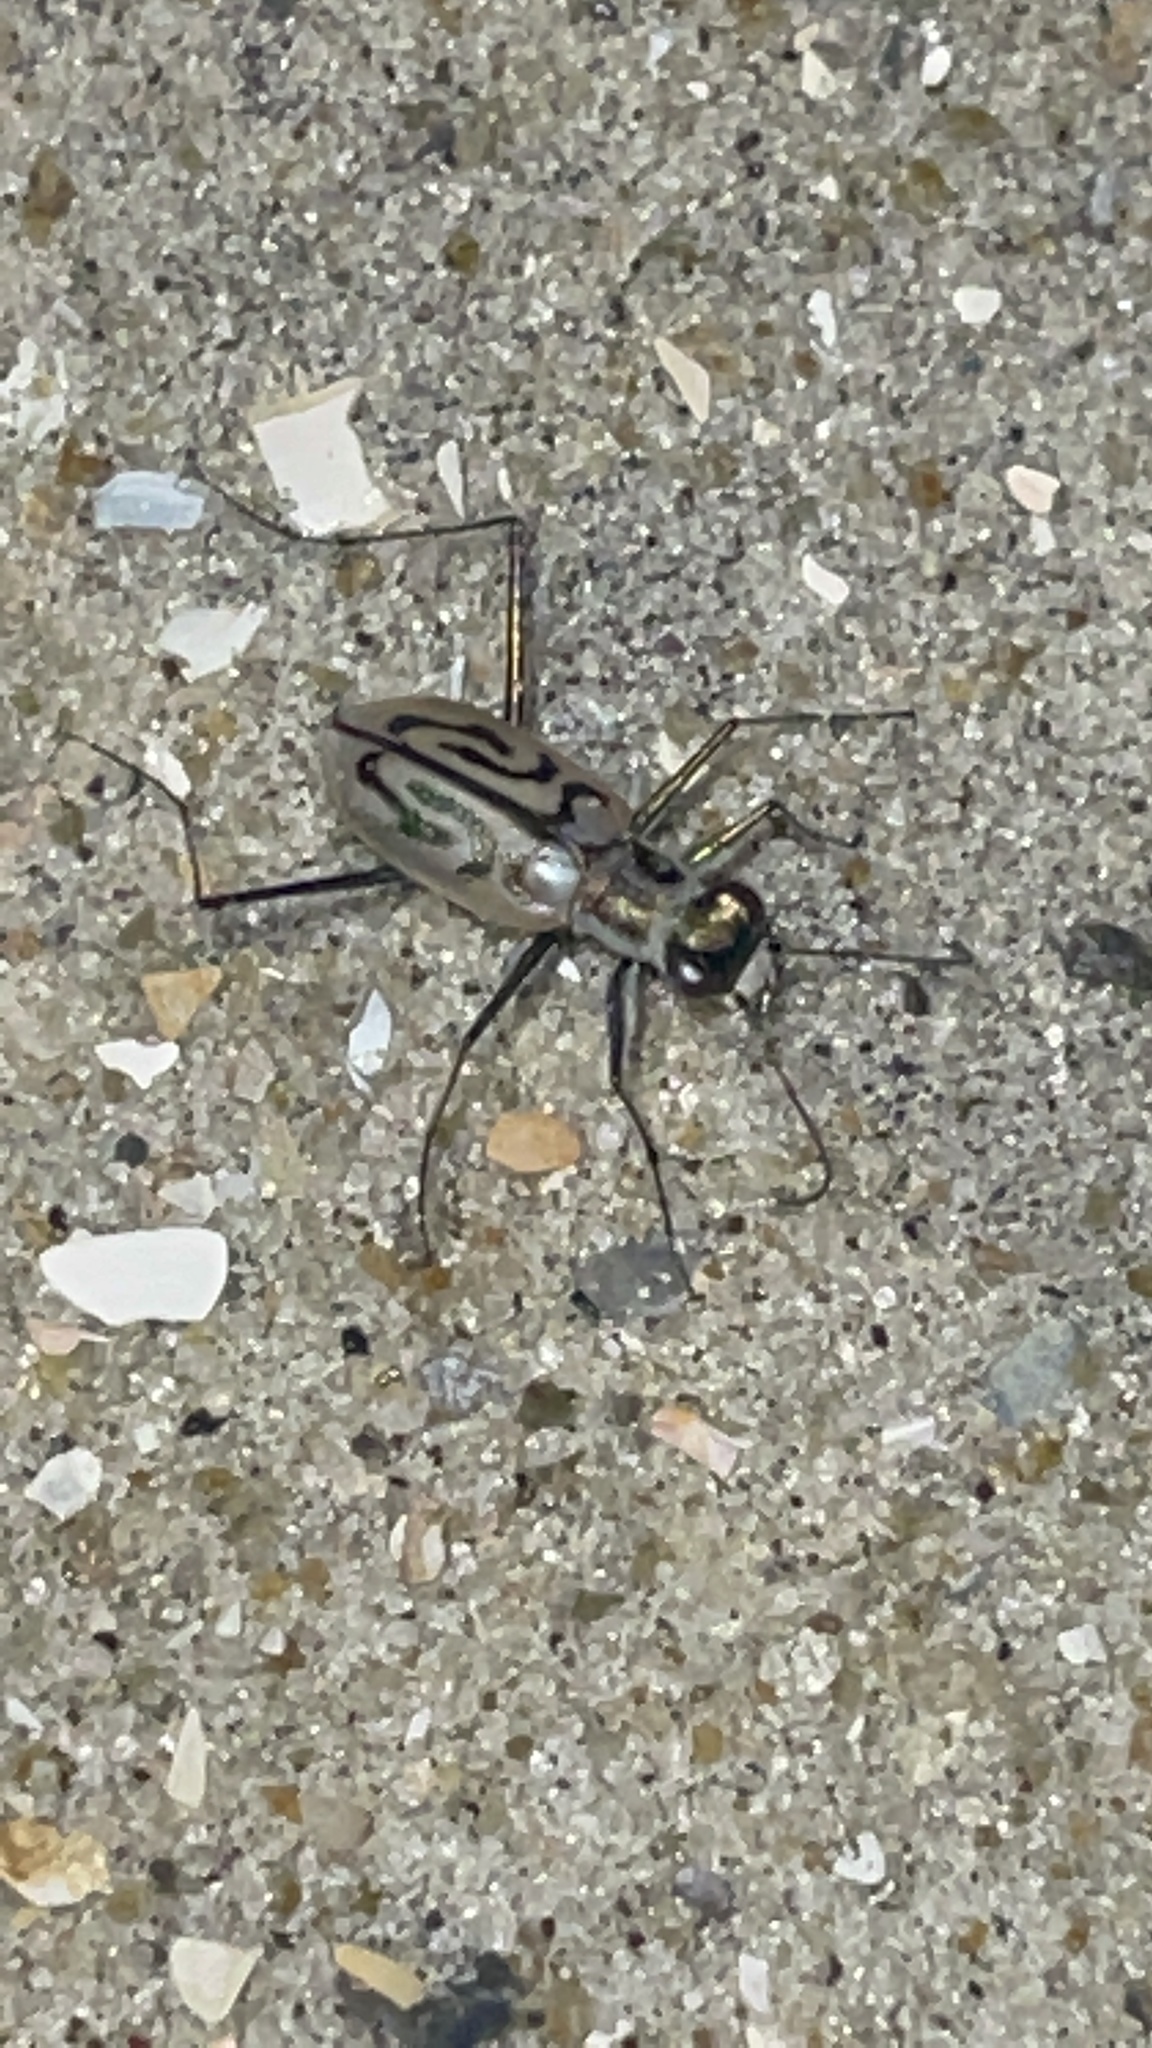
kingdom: Animalia
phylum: Arthropoda
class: Insecta
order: Coleoptera
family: Carabidae
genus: Habroscelimorpha
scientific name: Habroscelimorpha dorsalis
